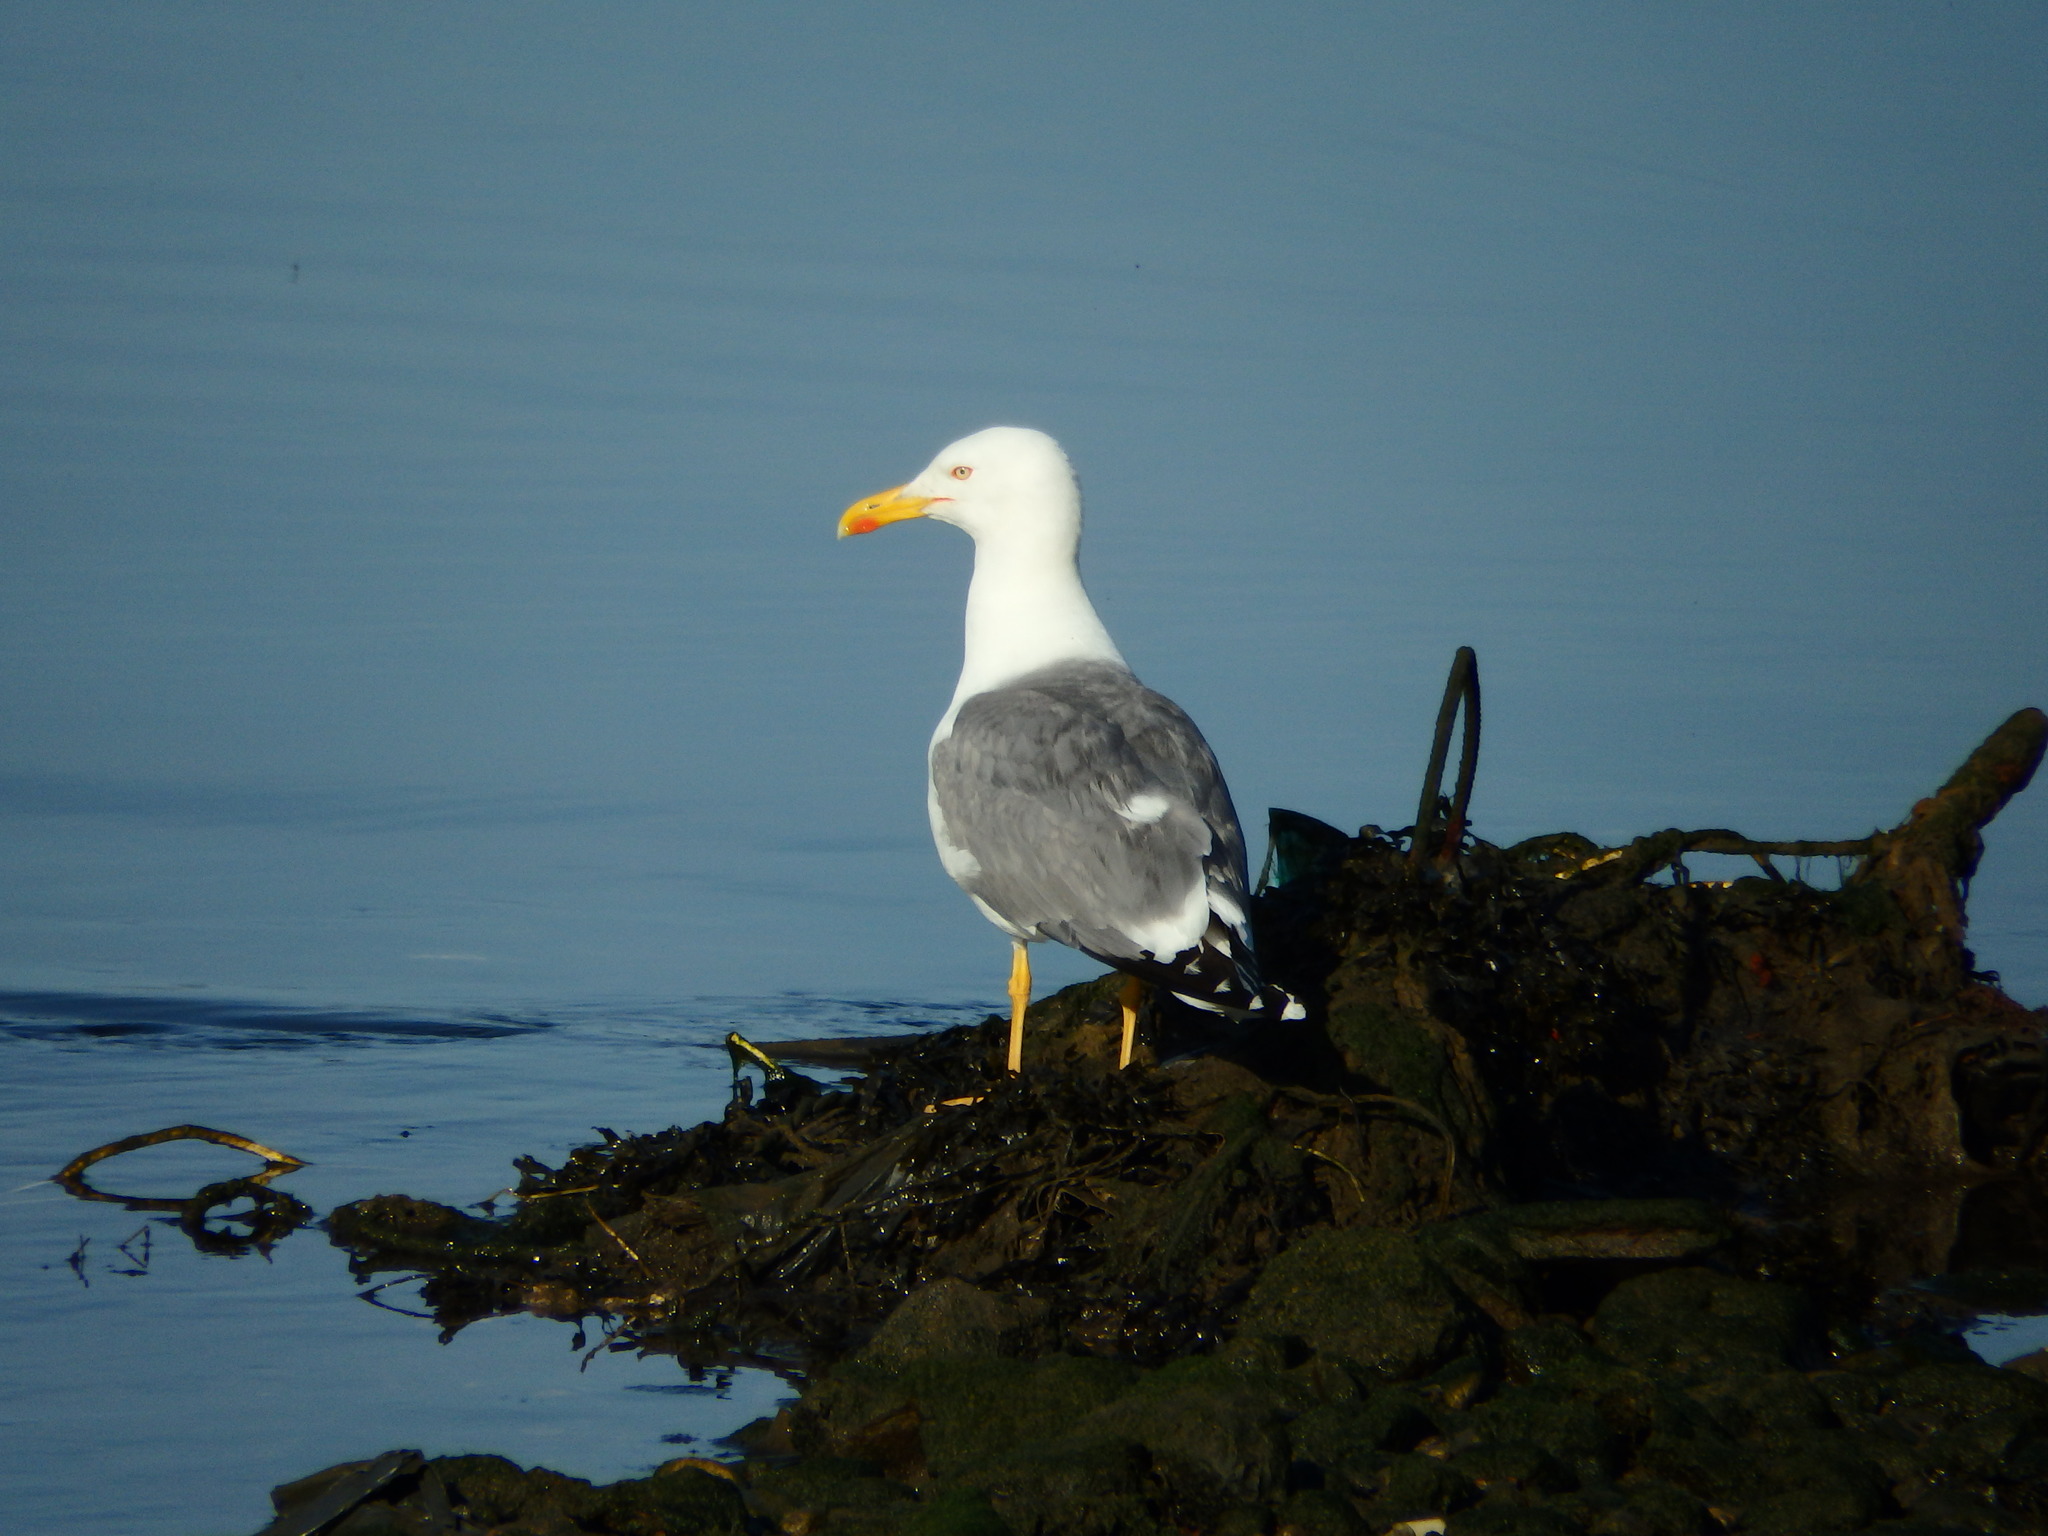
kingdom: Animalia
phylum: Chordata
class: Aves
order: Charadriiformes
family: Laridae
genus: Larus
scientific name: Larus michahellis
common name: Yellow-legged gull
